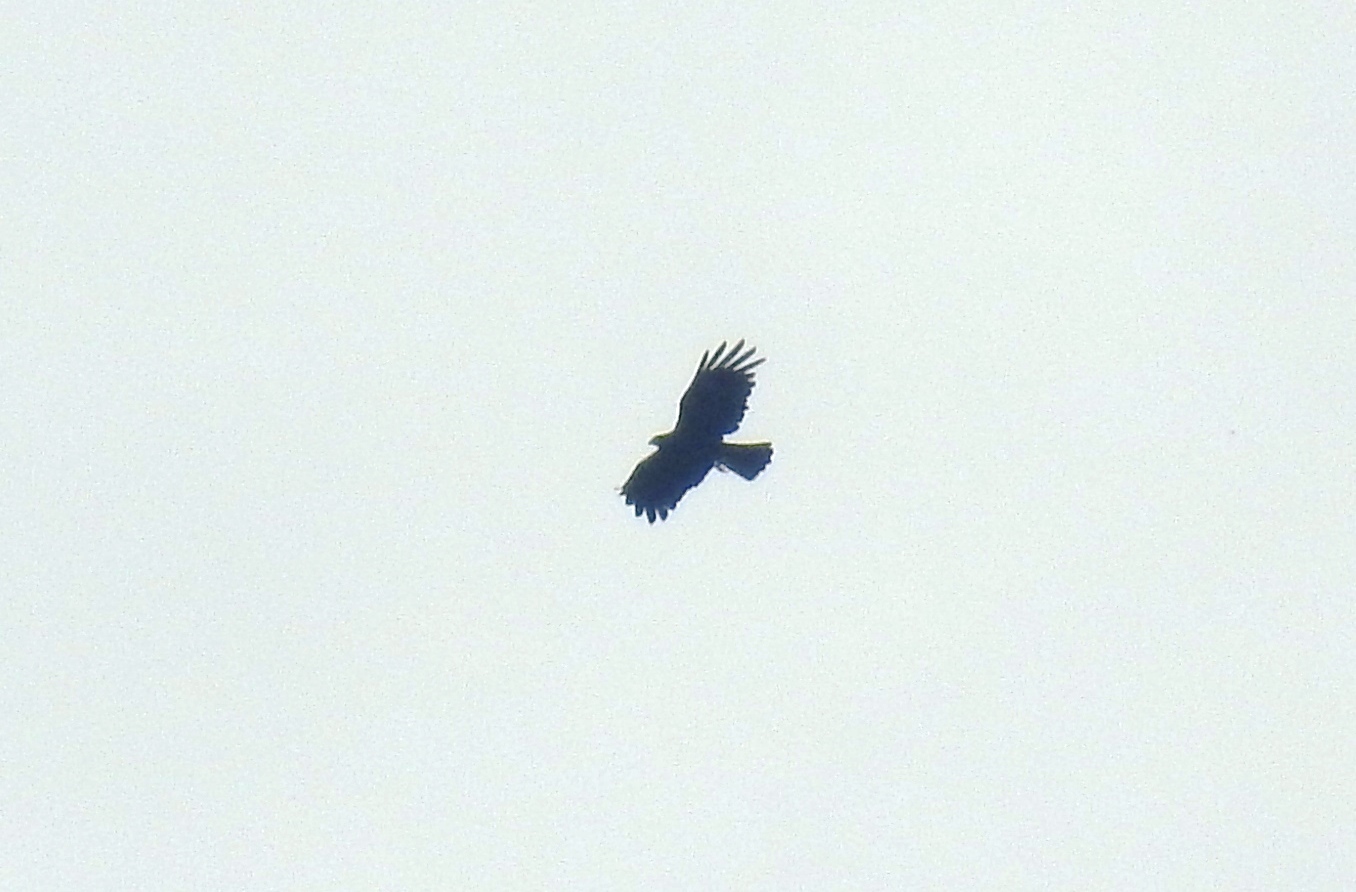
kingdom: Animalia
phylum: Chordata
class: Aves
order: Accipitriformes
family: Accipitridae
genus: Ictinaetus
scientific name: Ictinaetus malayensis
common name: Black eagle
